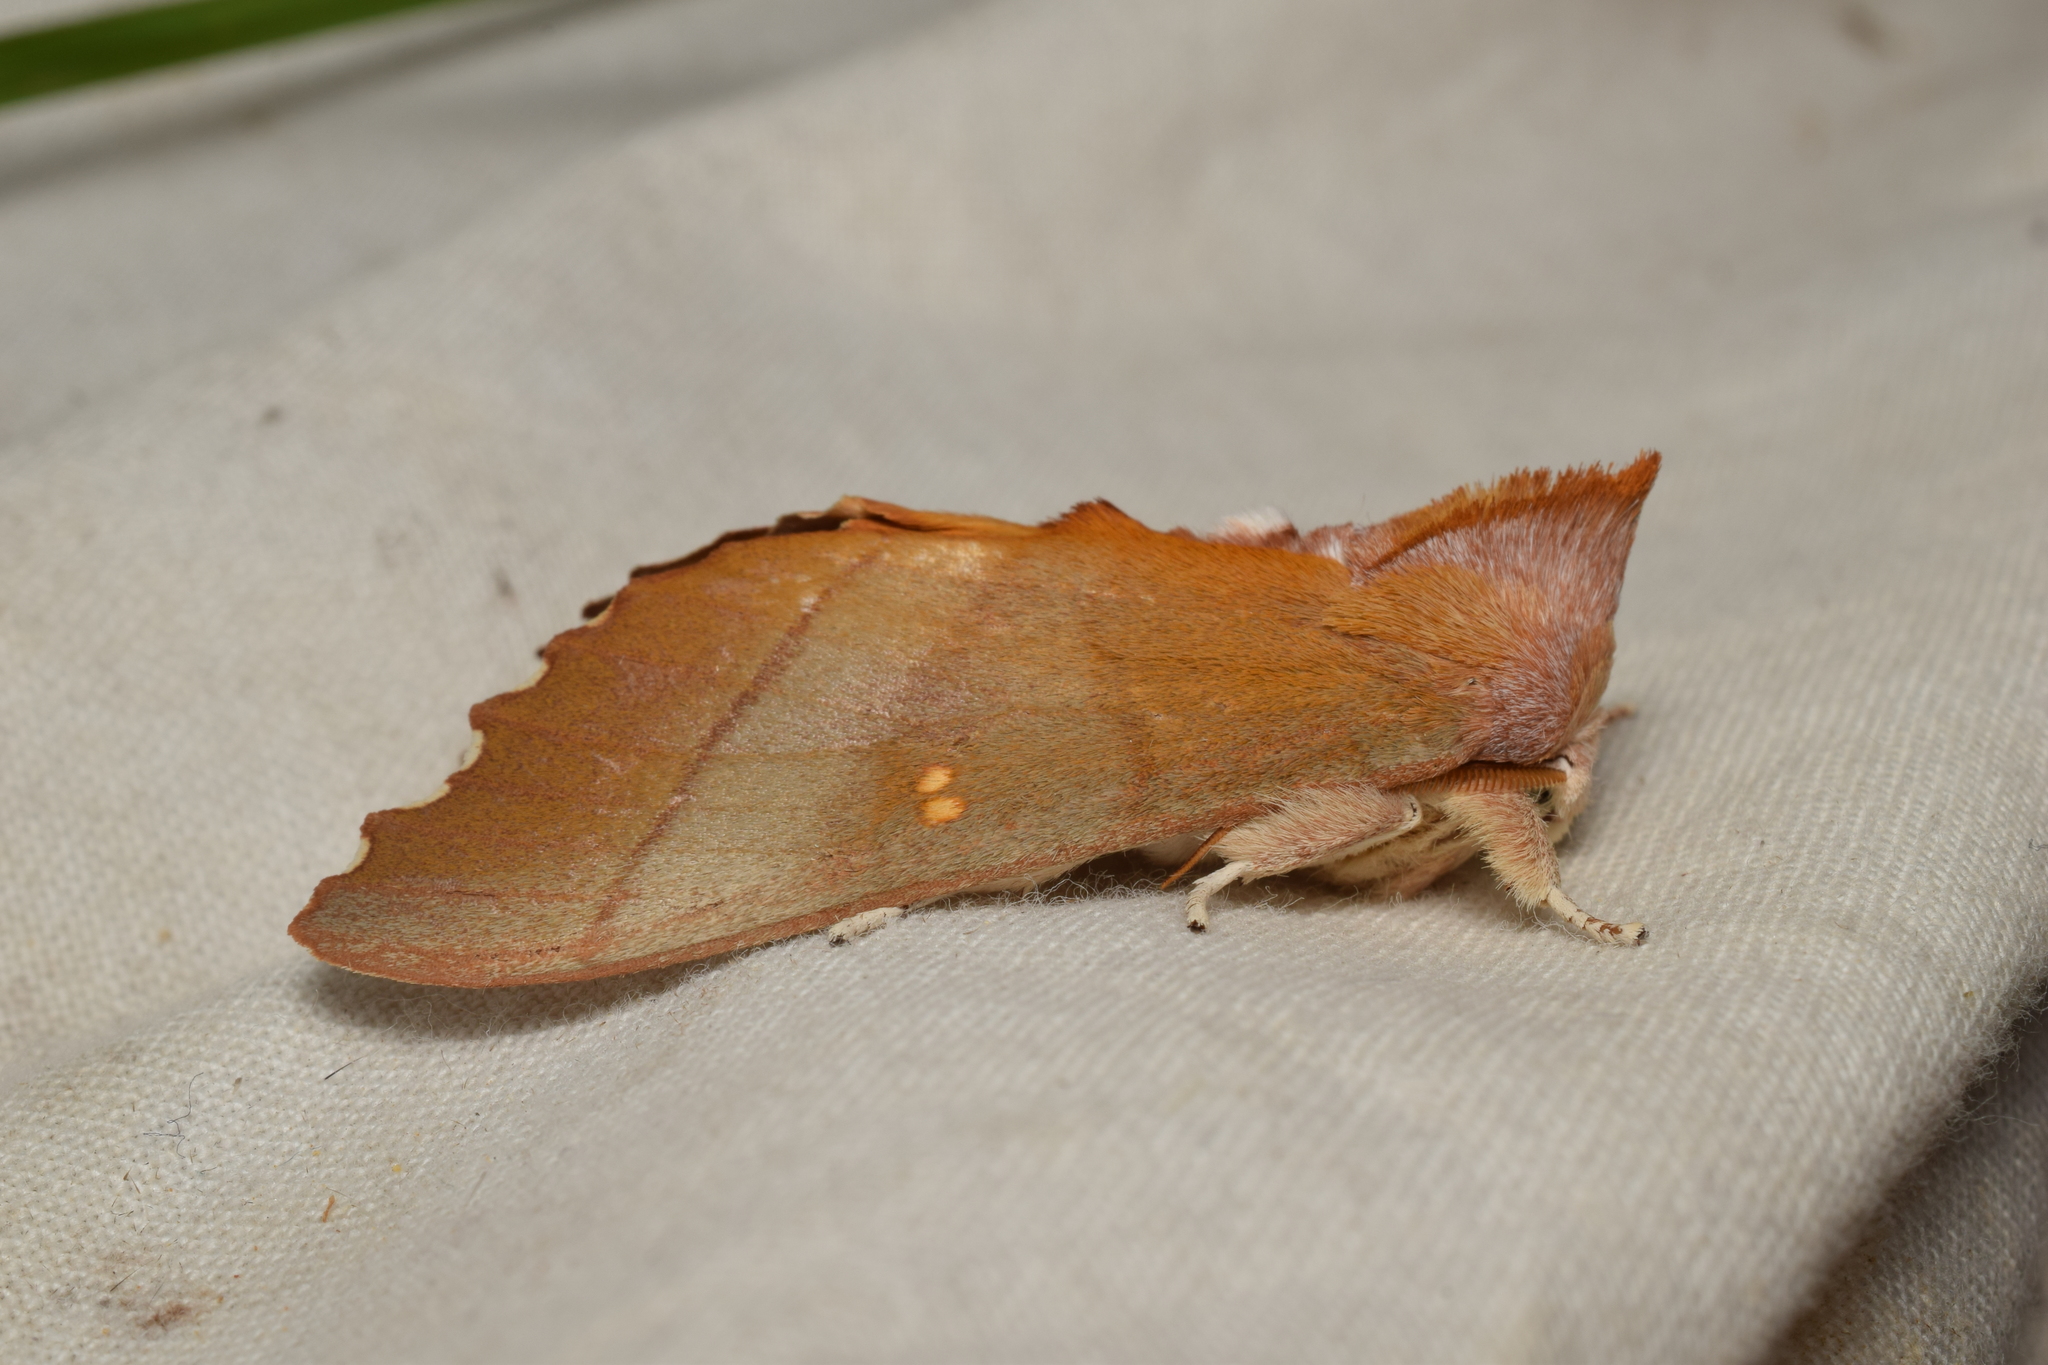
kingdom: Animalia
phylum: Arthropoda
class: Insecta
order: Lepidoptera
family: Notodontidae
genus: Euhampsonia
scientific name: Euhampsonia cristata
